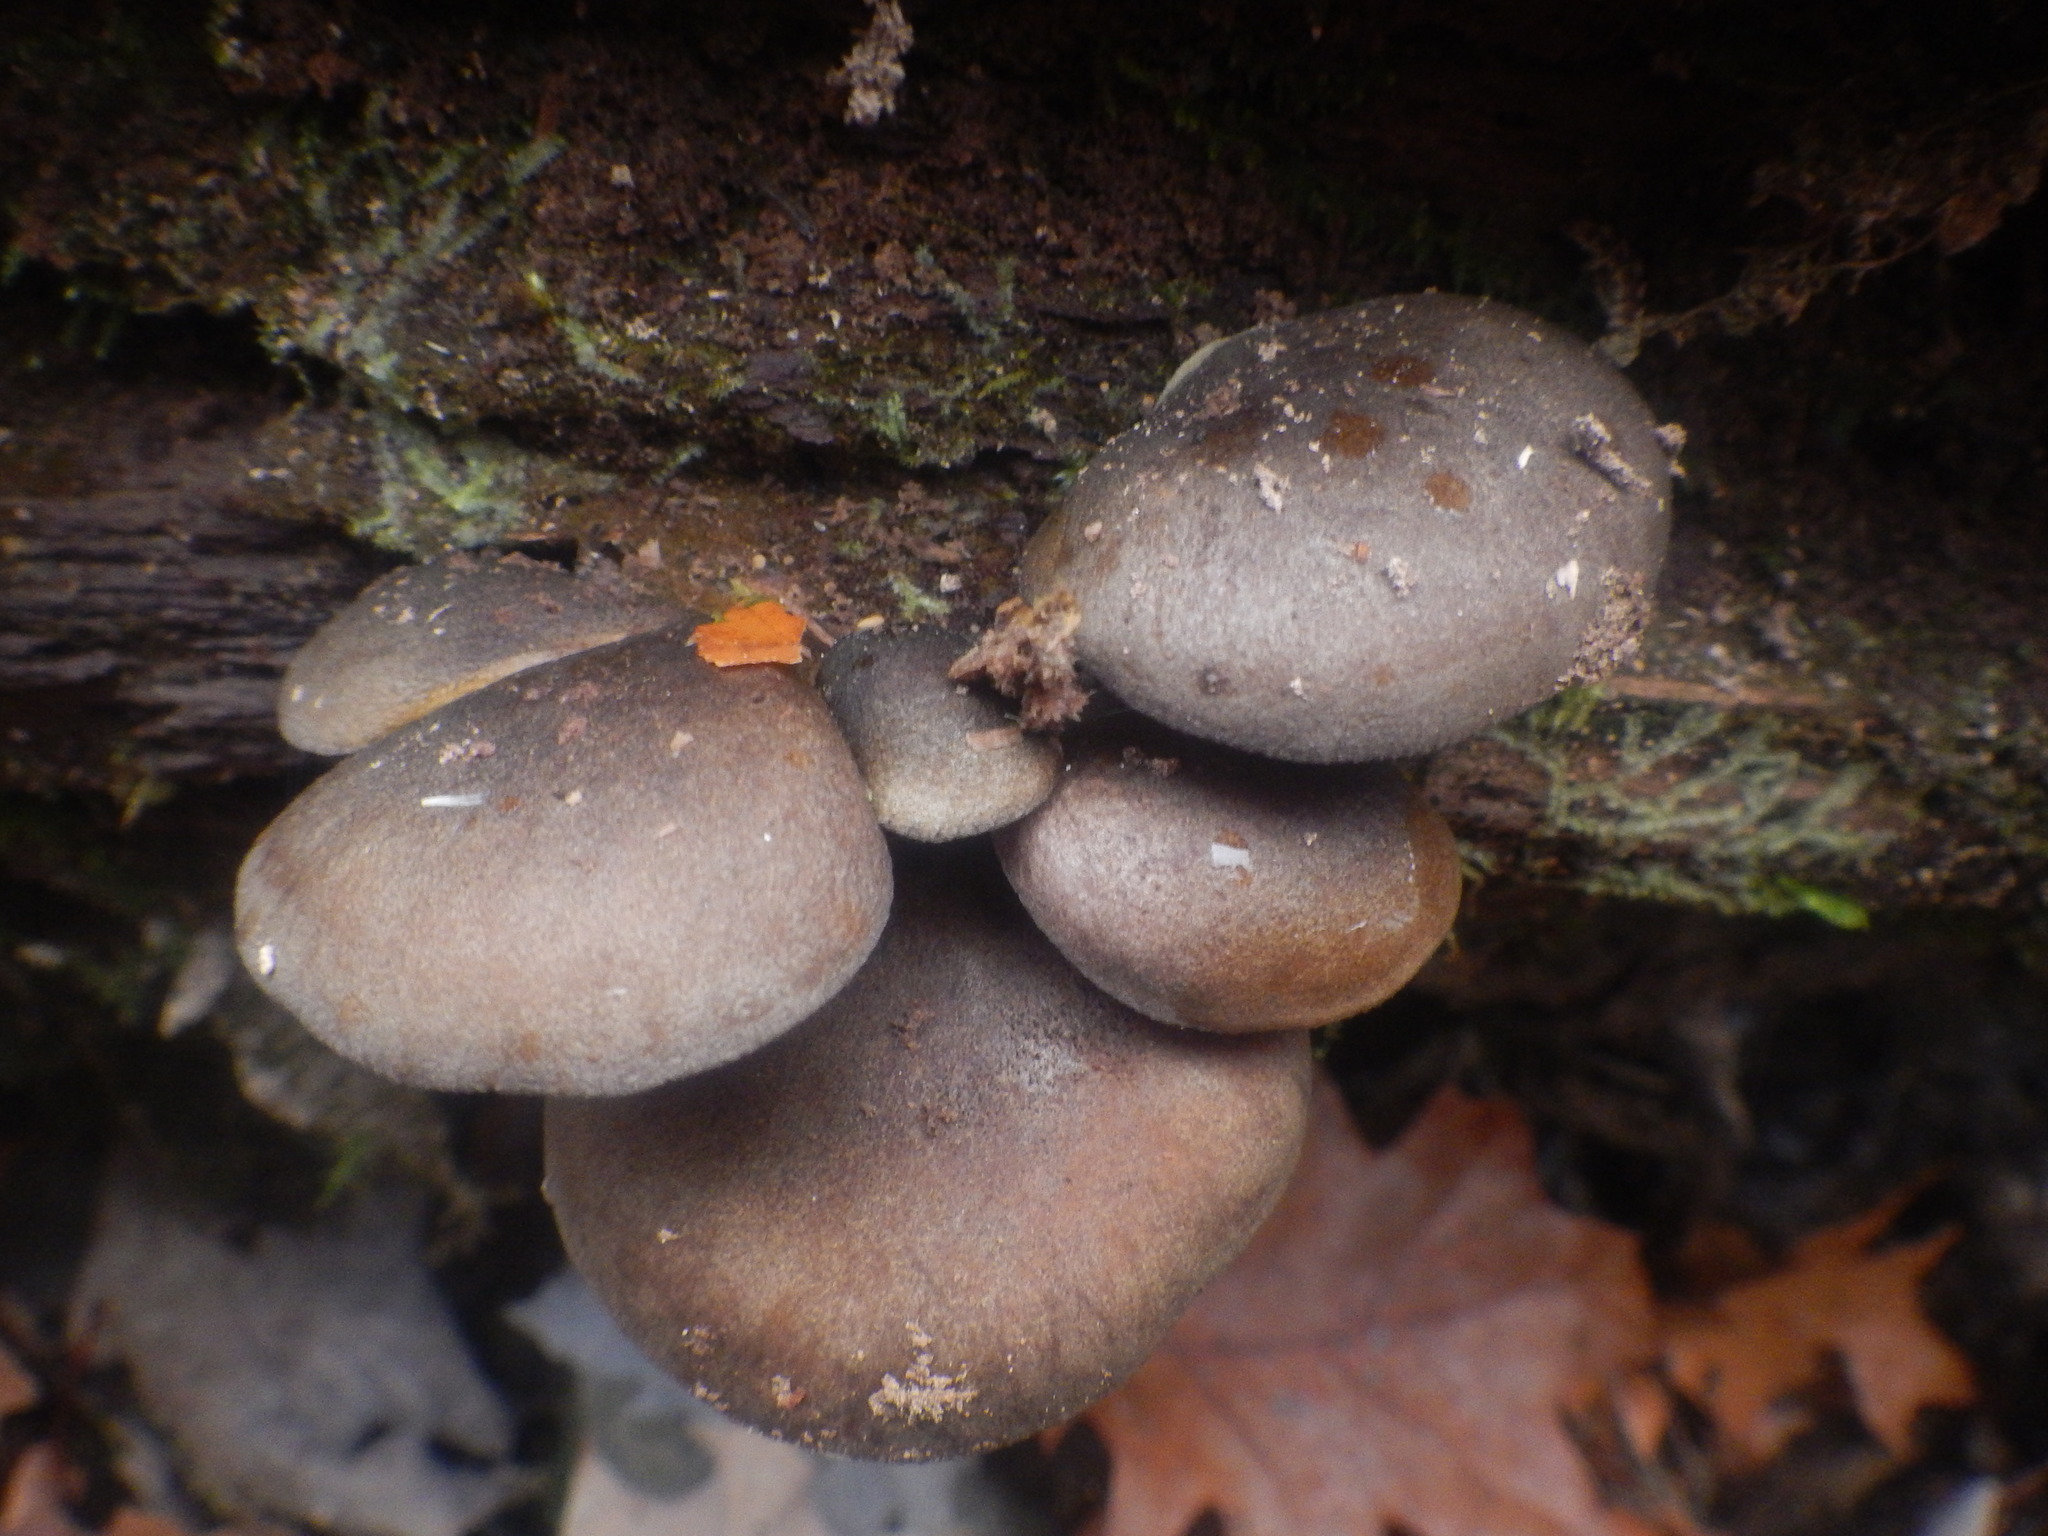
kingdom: Fungi
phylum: Basidiomycota
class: Agaricomycetes
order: Agaricales
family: Sarcomyxaceae
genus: Sarcomyxa
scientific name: Sarcomyxa serotina
